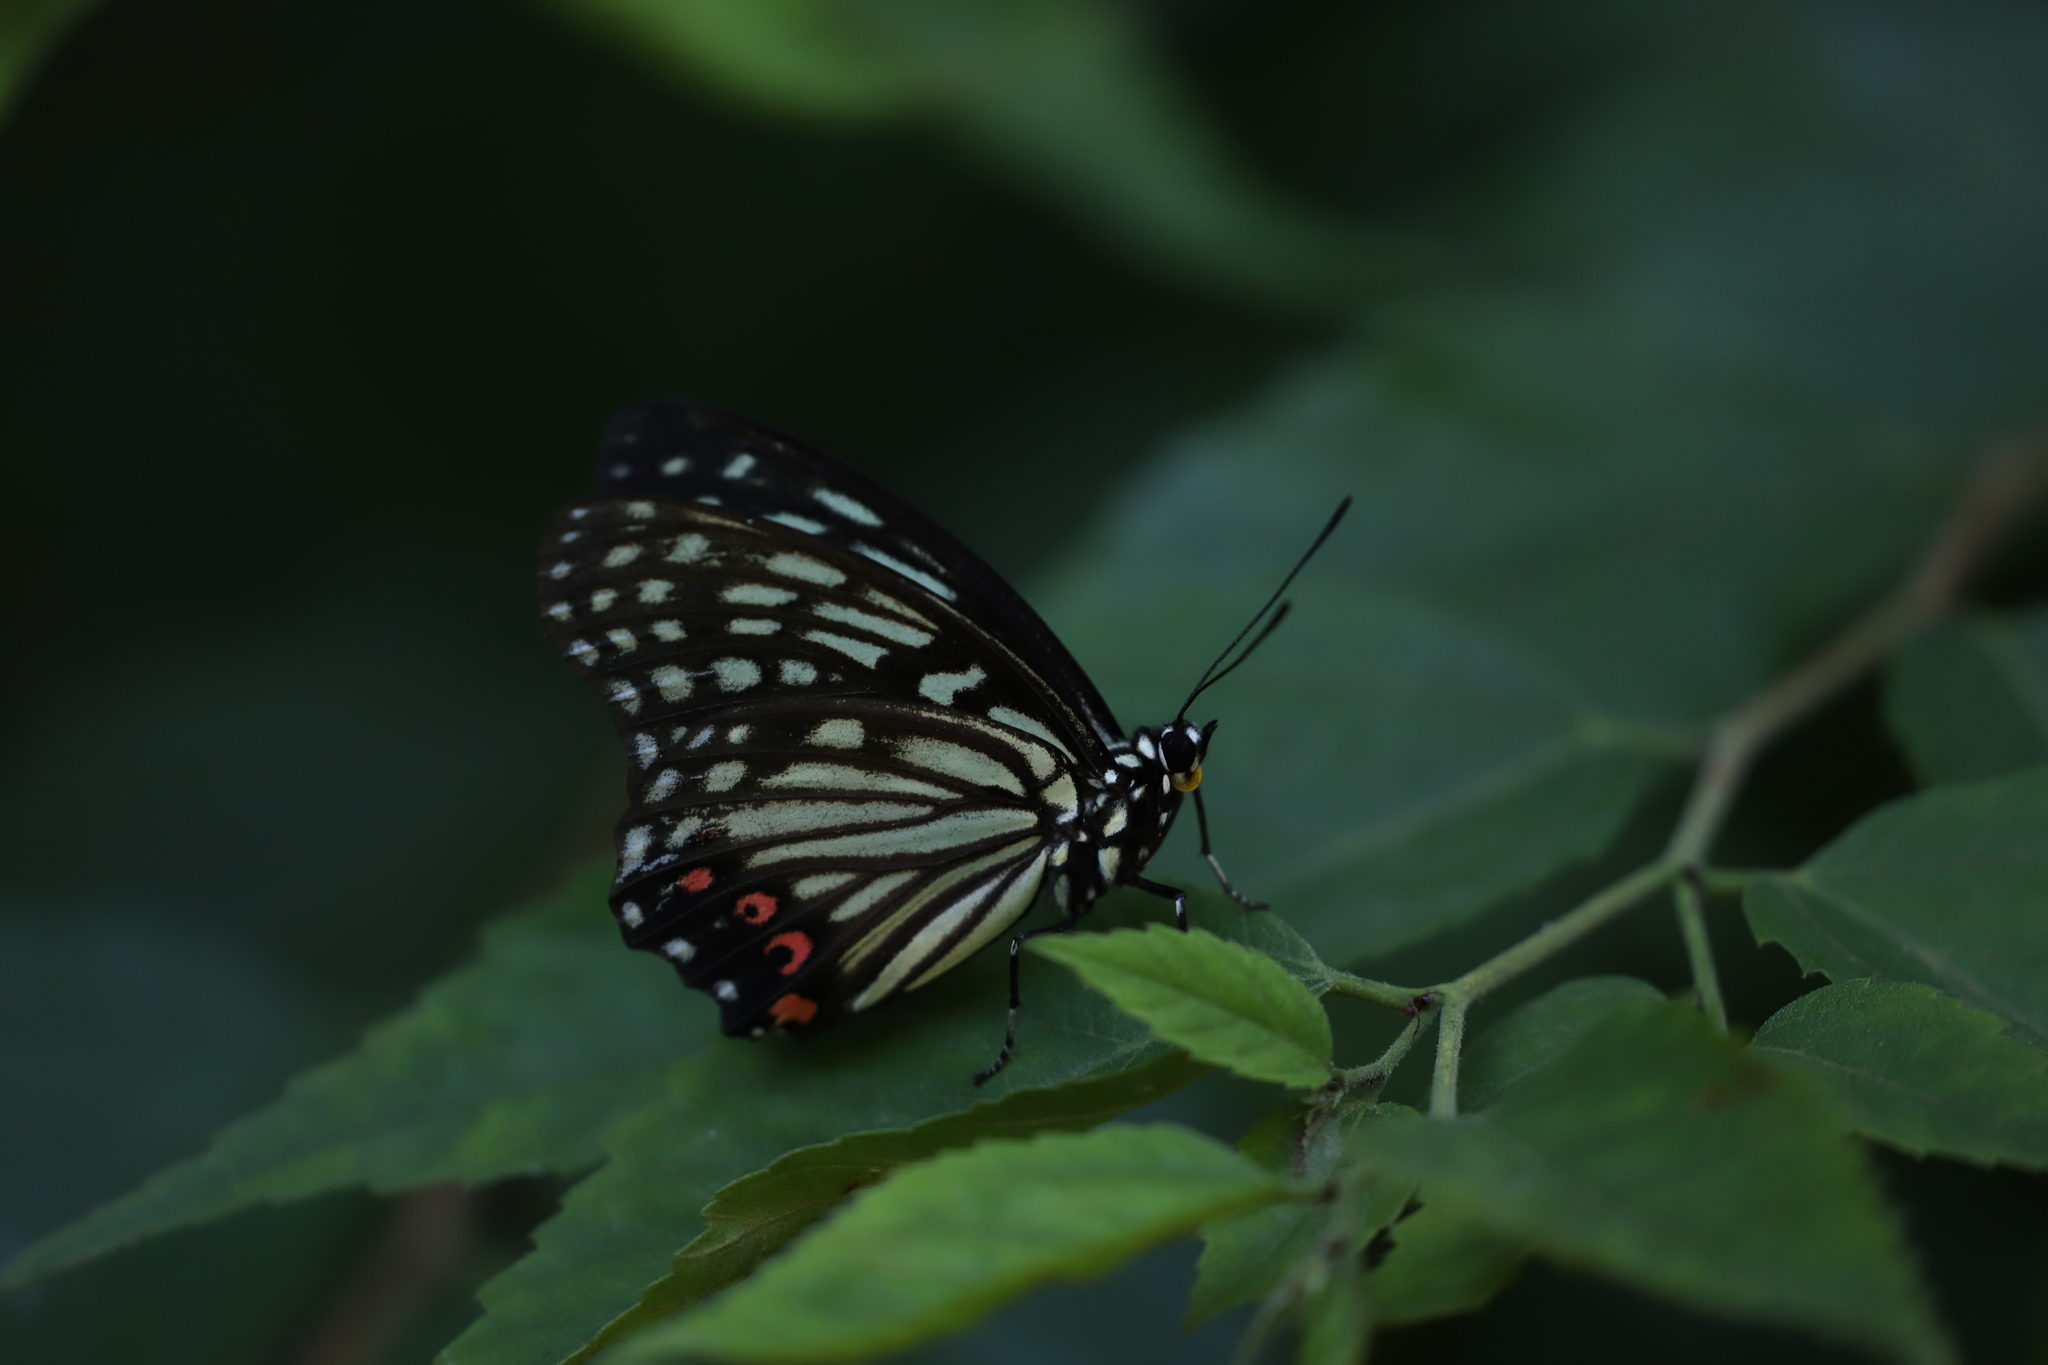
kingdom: Animalia
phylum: Arthropoda
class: Insecta
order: Lepidoptera
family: Nymphalidae
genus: Hestina
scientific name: Hestina assimilis
